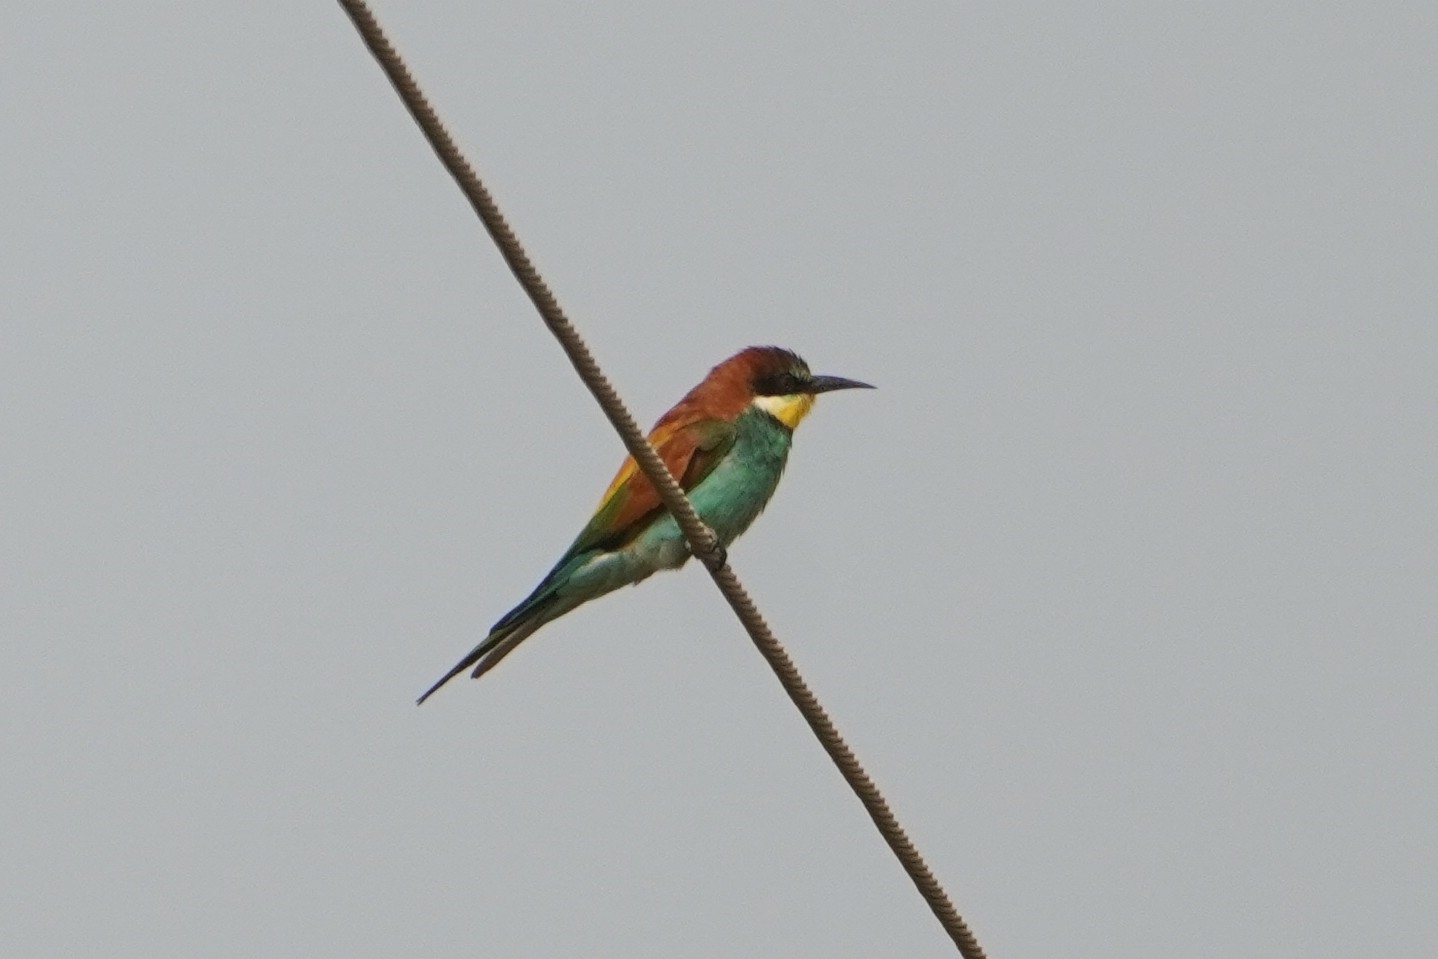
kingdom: Animalia
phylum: Chordata
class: Aves
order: Coraciiformes
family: Meropidae
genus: Merops
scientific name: Merops apiaster
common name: European bee-eater
